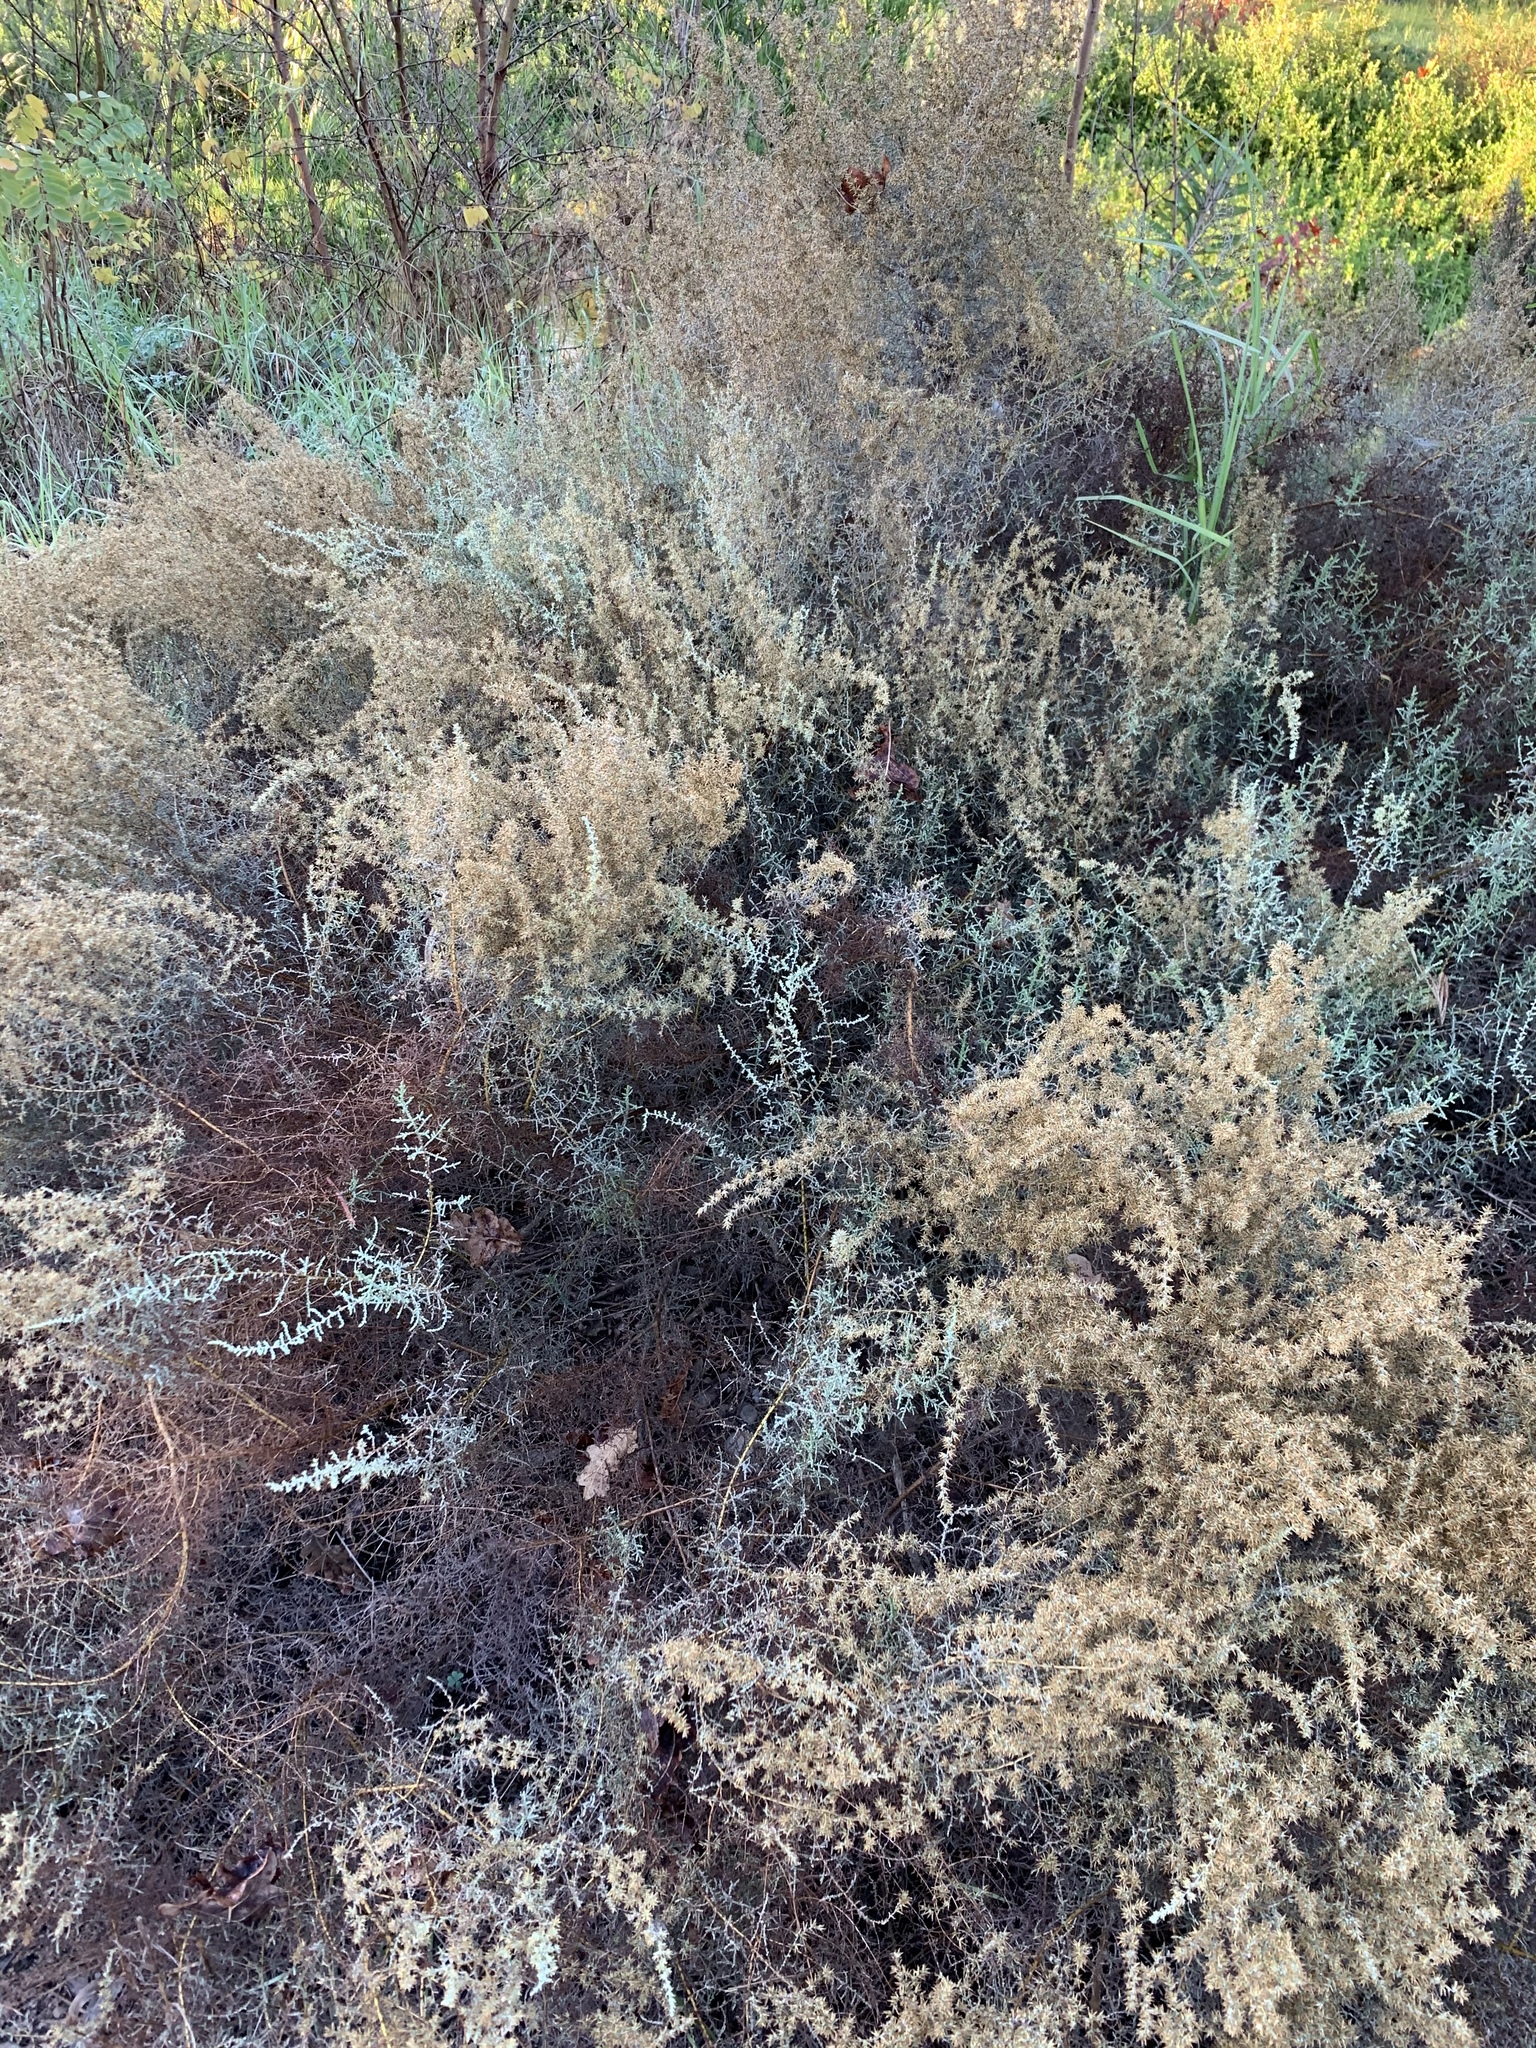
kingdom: Plantae
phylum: Tracheophyta
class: Magnoliopsida
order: Asterales
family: Asteraceae
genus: Seriphium
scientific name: Seriphium plumosum
